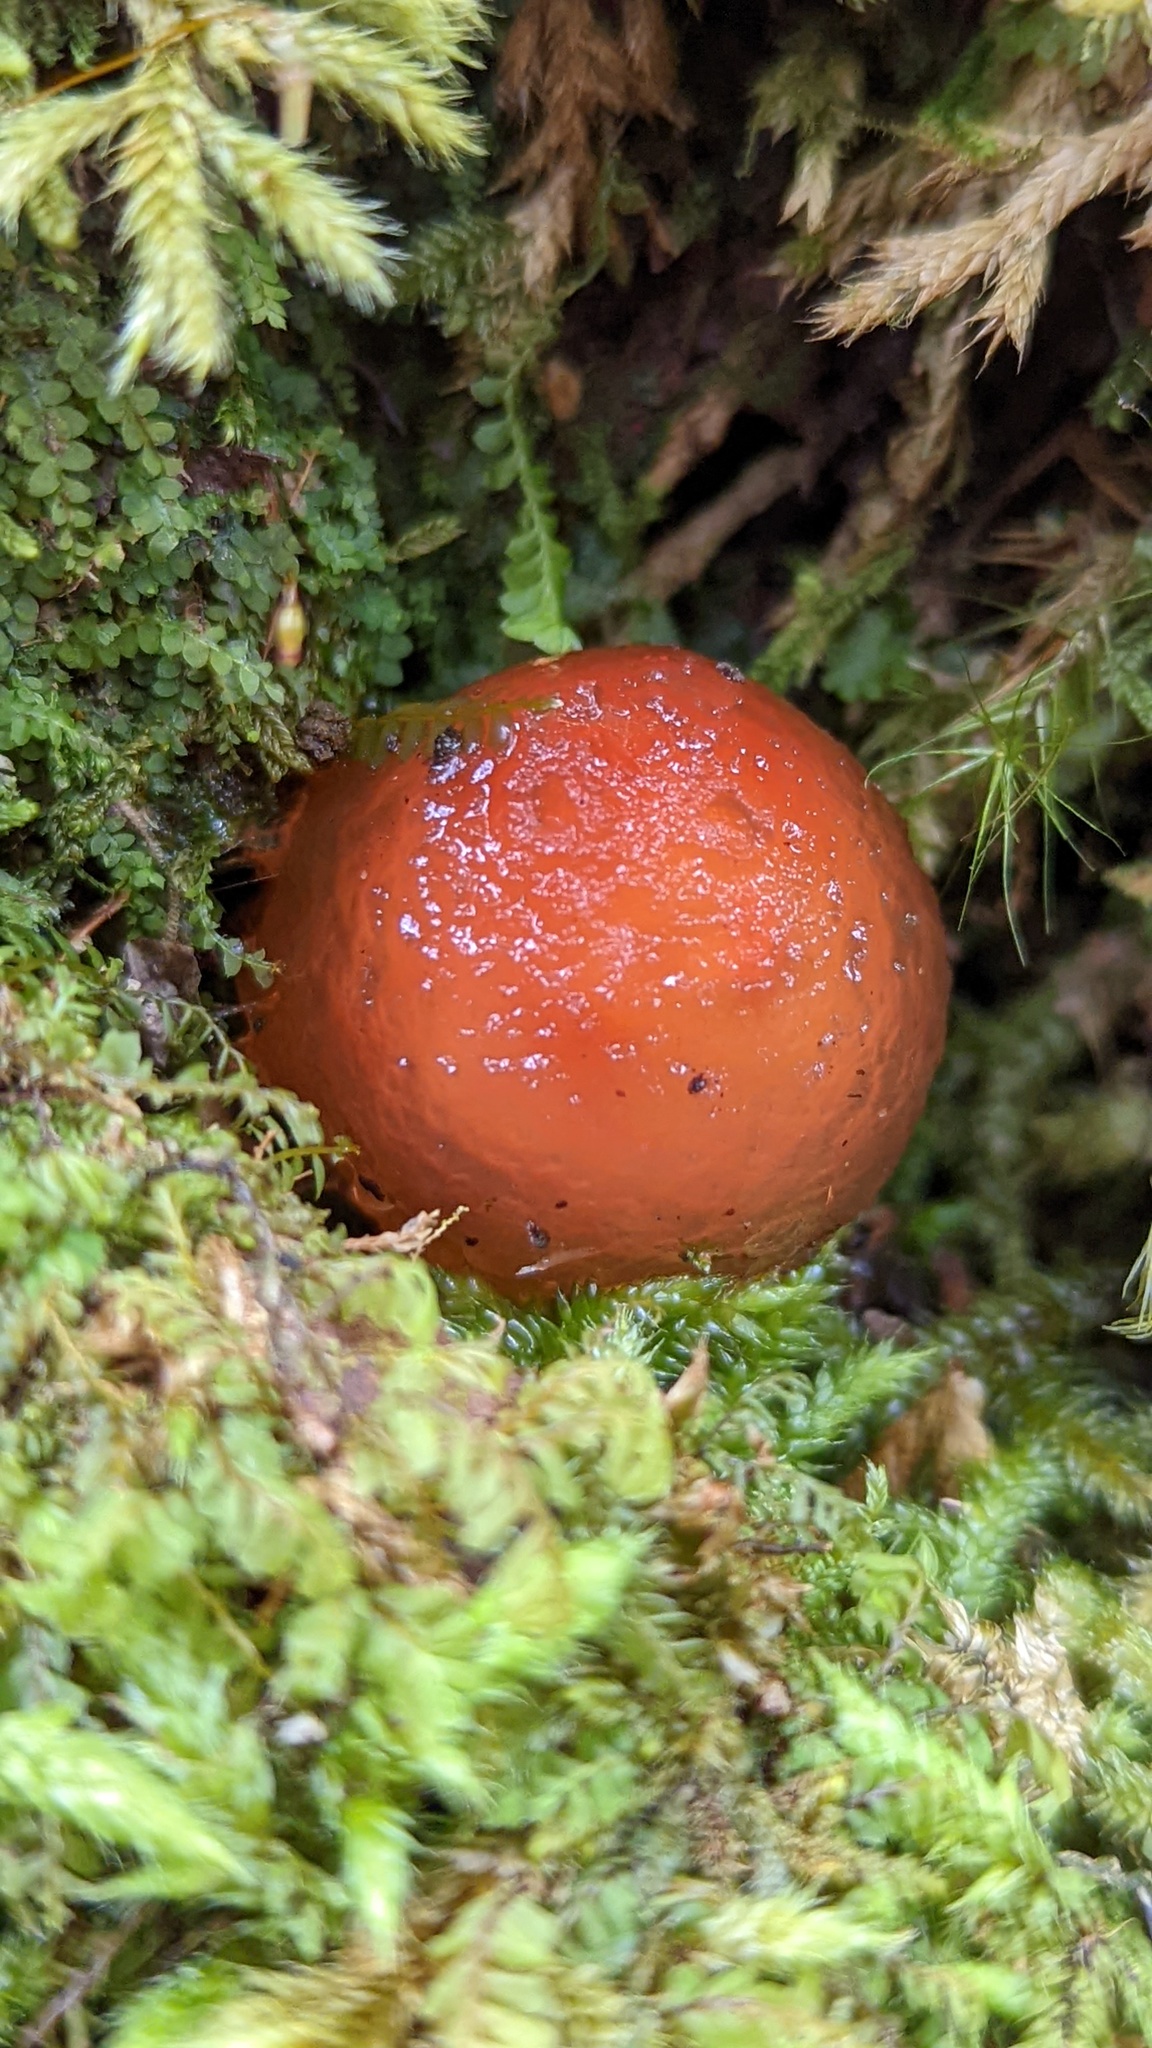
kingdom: Fungi
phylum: Basidiomycota
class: Agaricomycetes
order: Boletales
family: Calostomataceae
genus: Calostoma
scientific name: Calostoma cinnabarinum
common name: Stalked puffball-in-aspic
